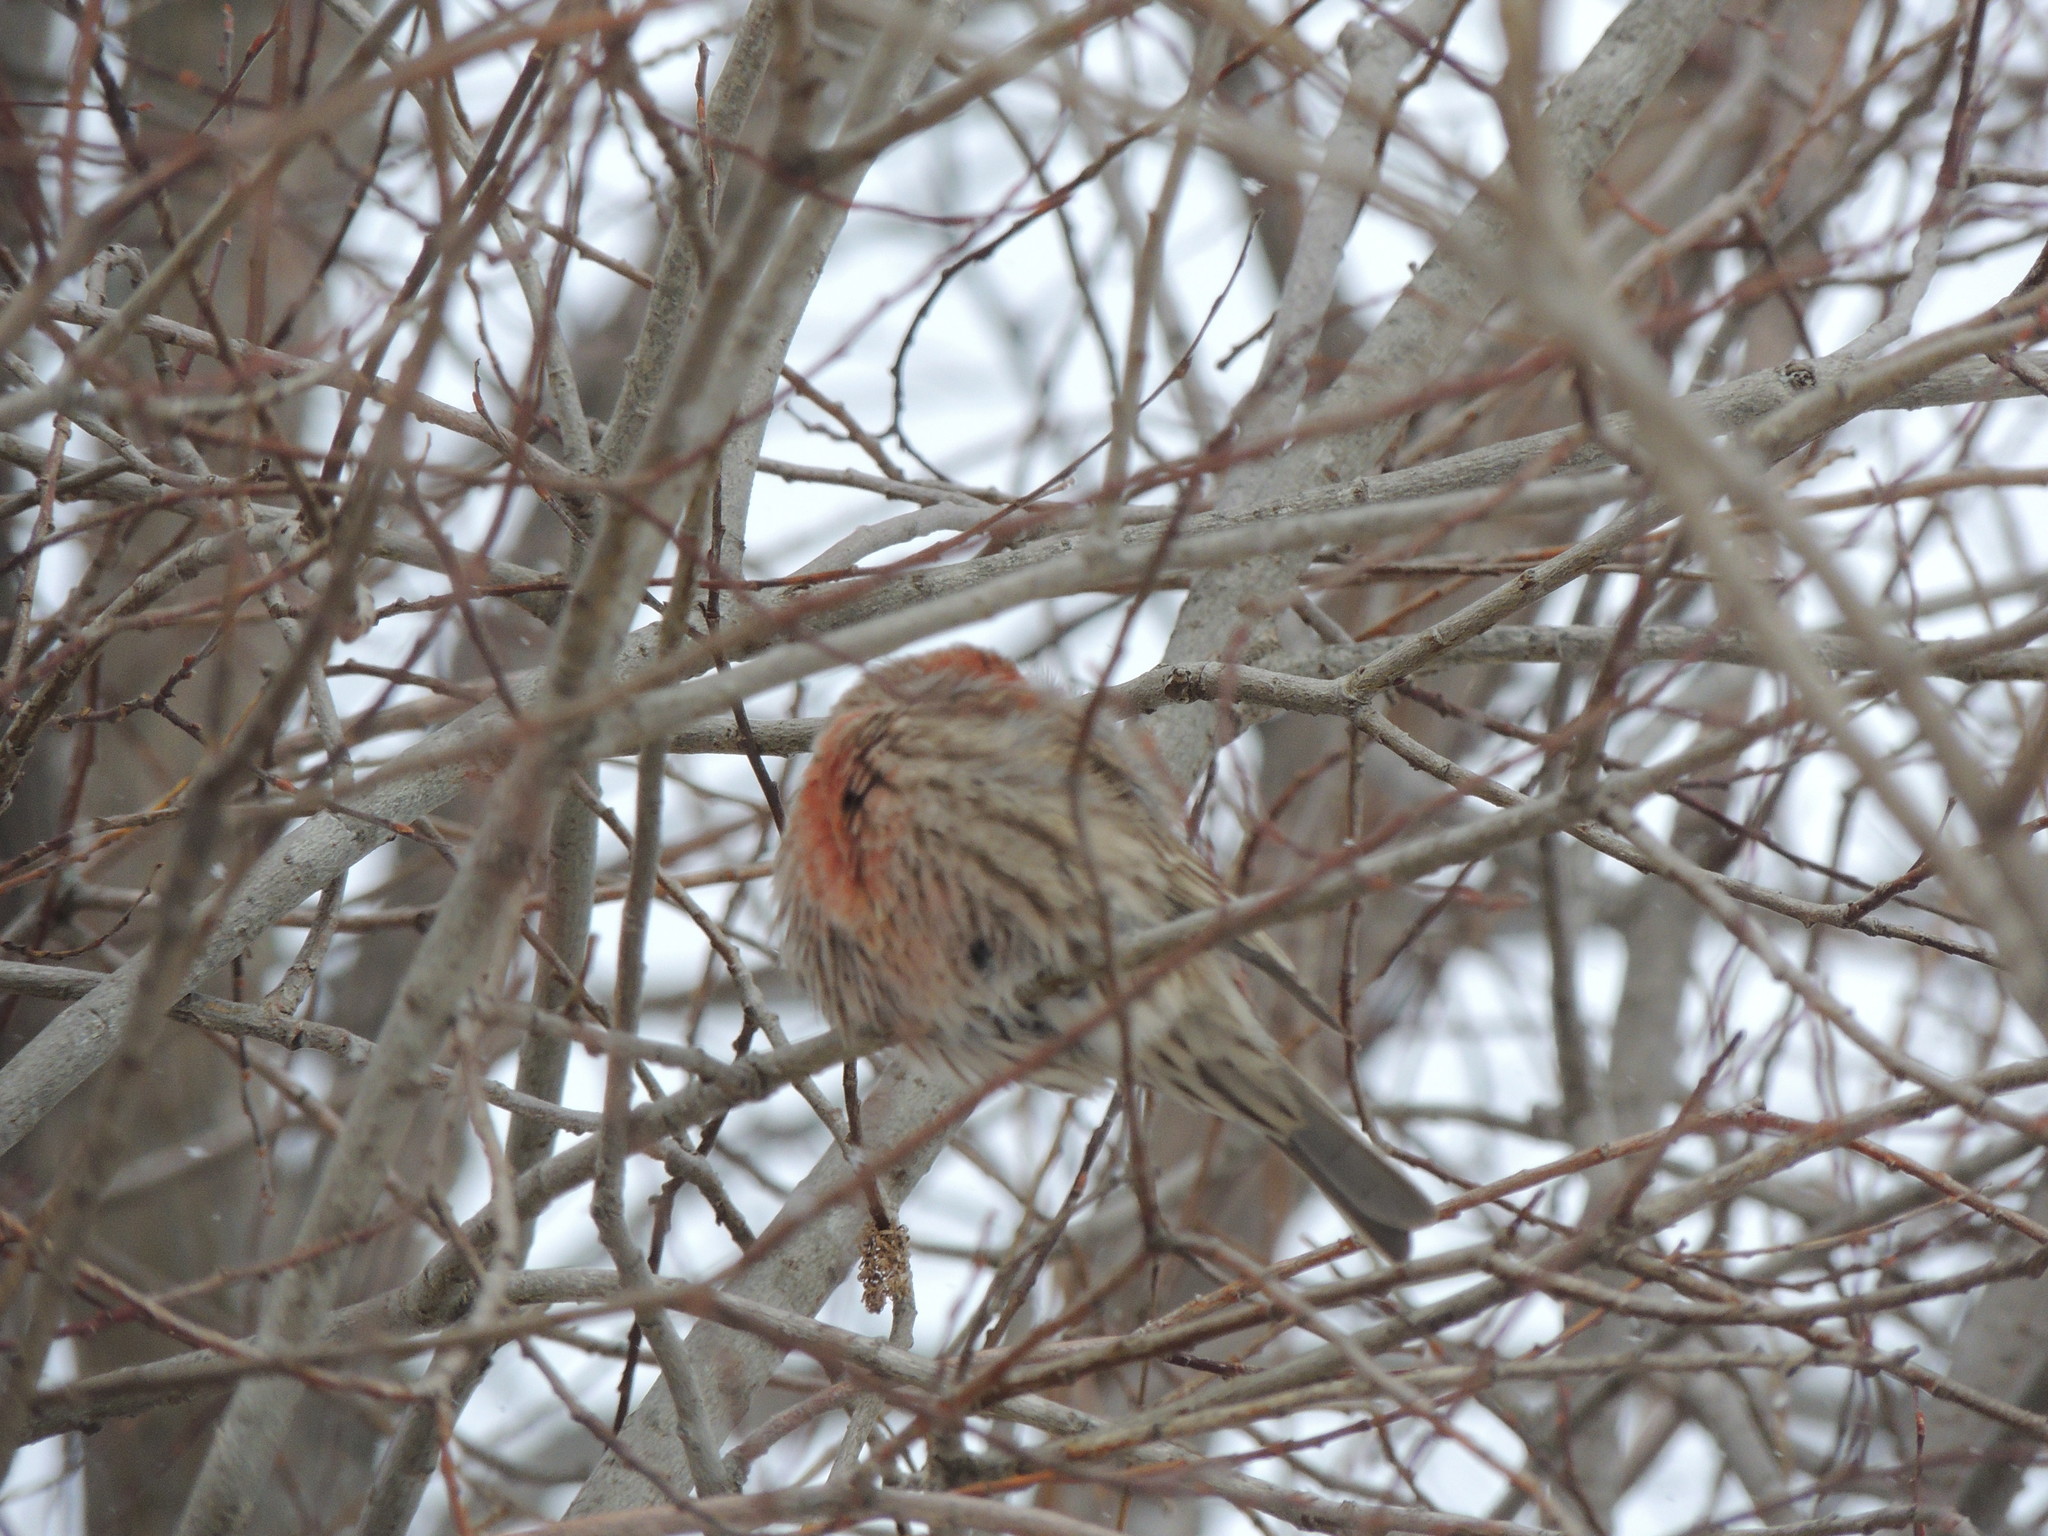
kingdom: Animalia
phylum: Chordata
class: Aves
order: Passeriformes
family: Fringillidae
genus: Haemorhous
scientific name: Haemorhous mexicanus
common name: House finch
